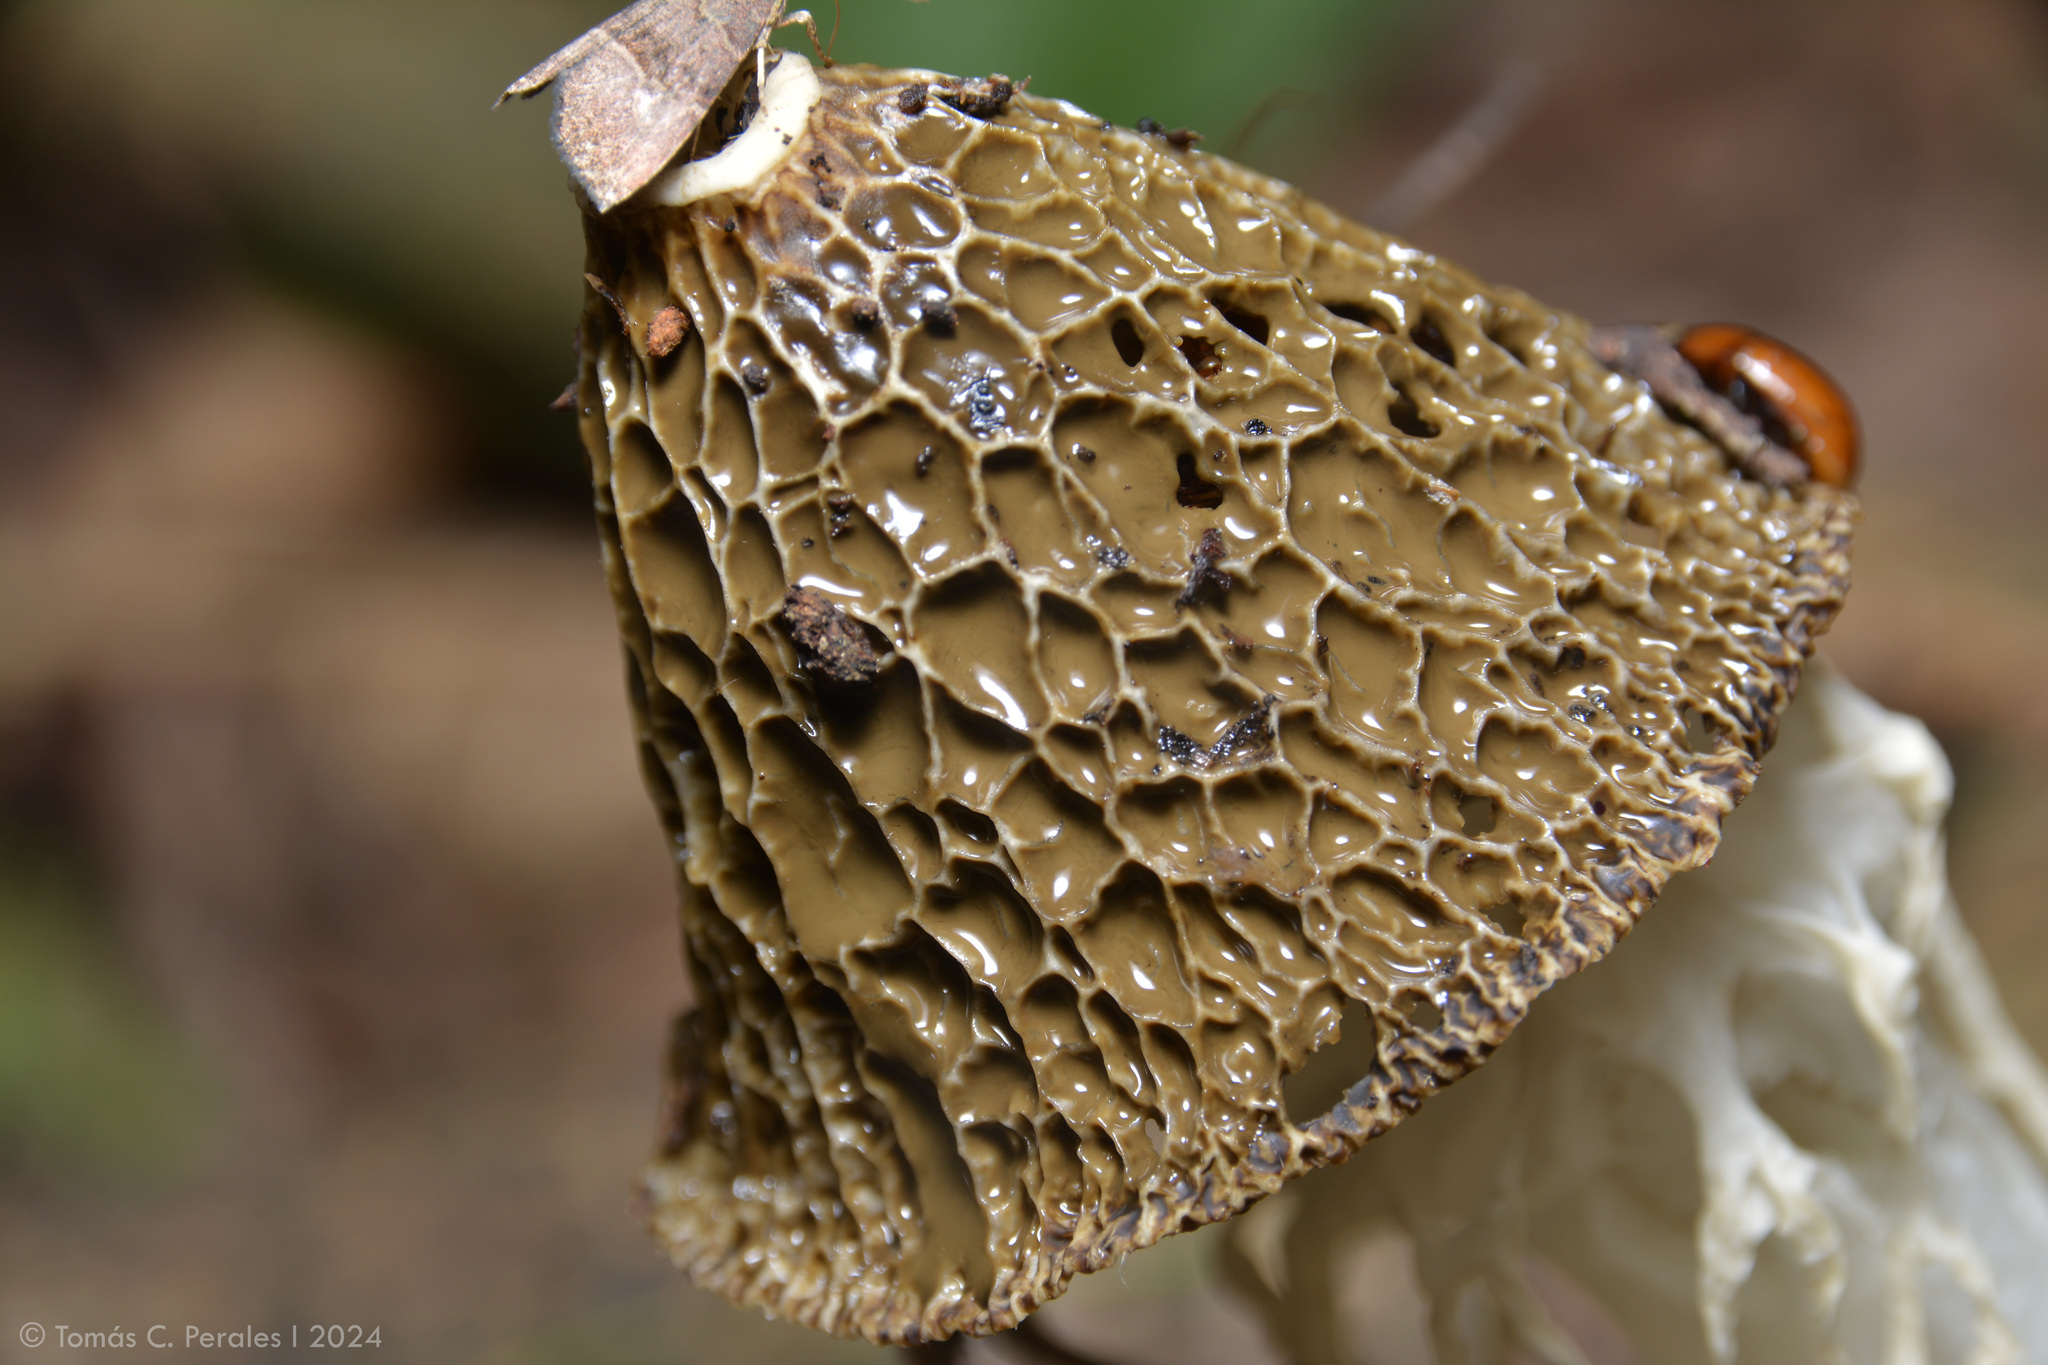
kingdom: Fungi
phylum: Basidiomycota
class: Agaricomycetes
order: Phallales
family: Phallaceae
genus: Phallus
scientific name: Phallus indusiatus
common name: Bridal veil stinkhorn
